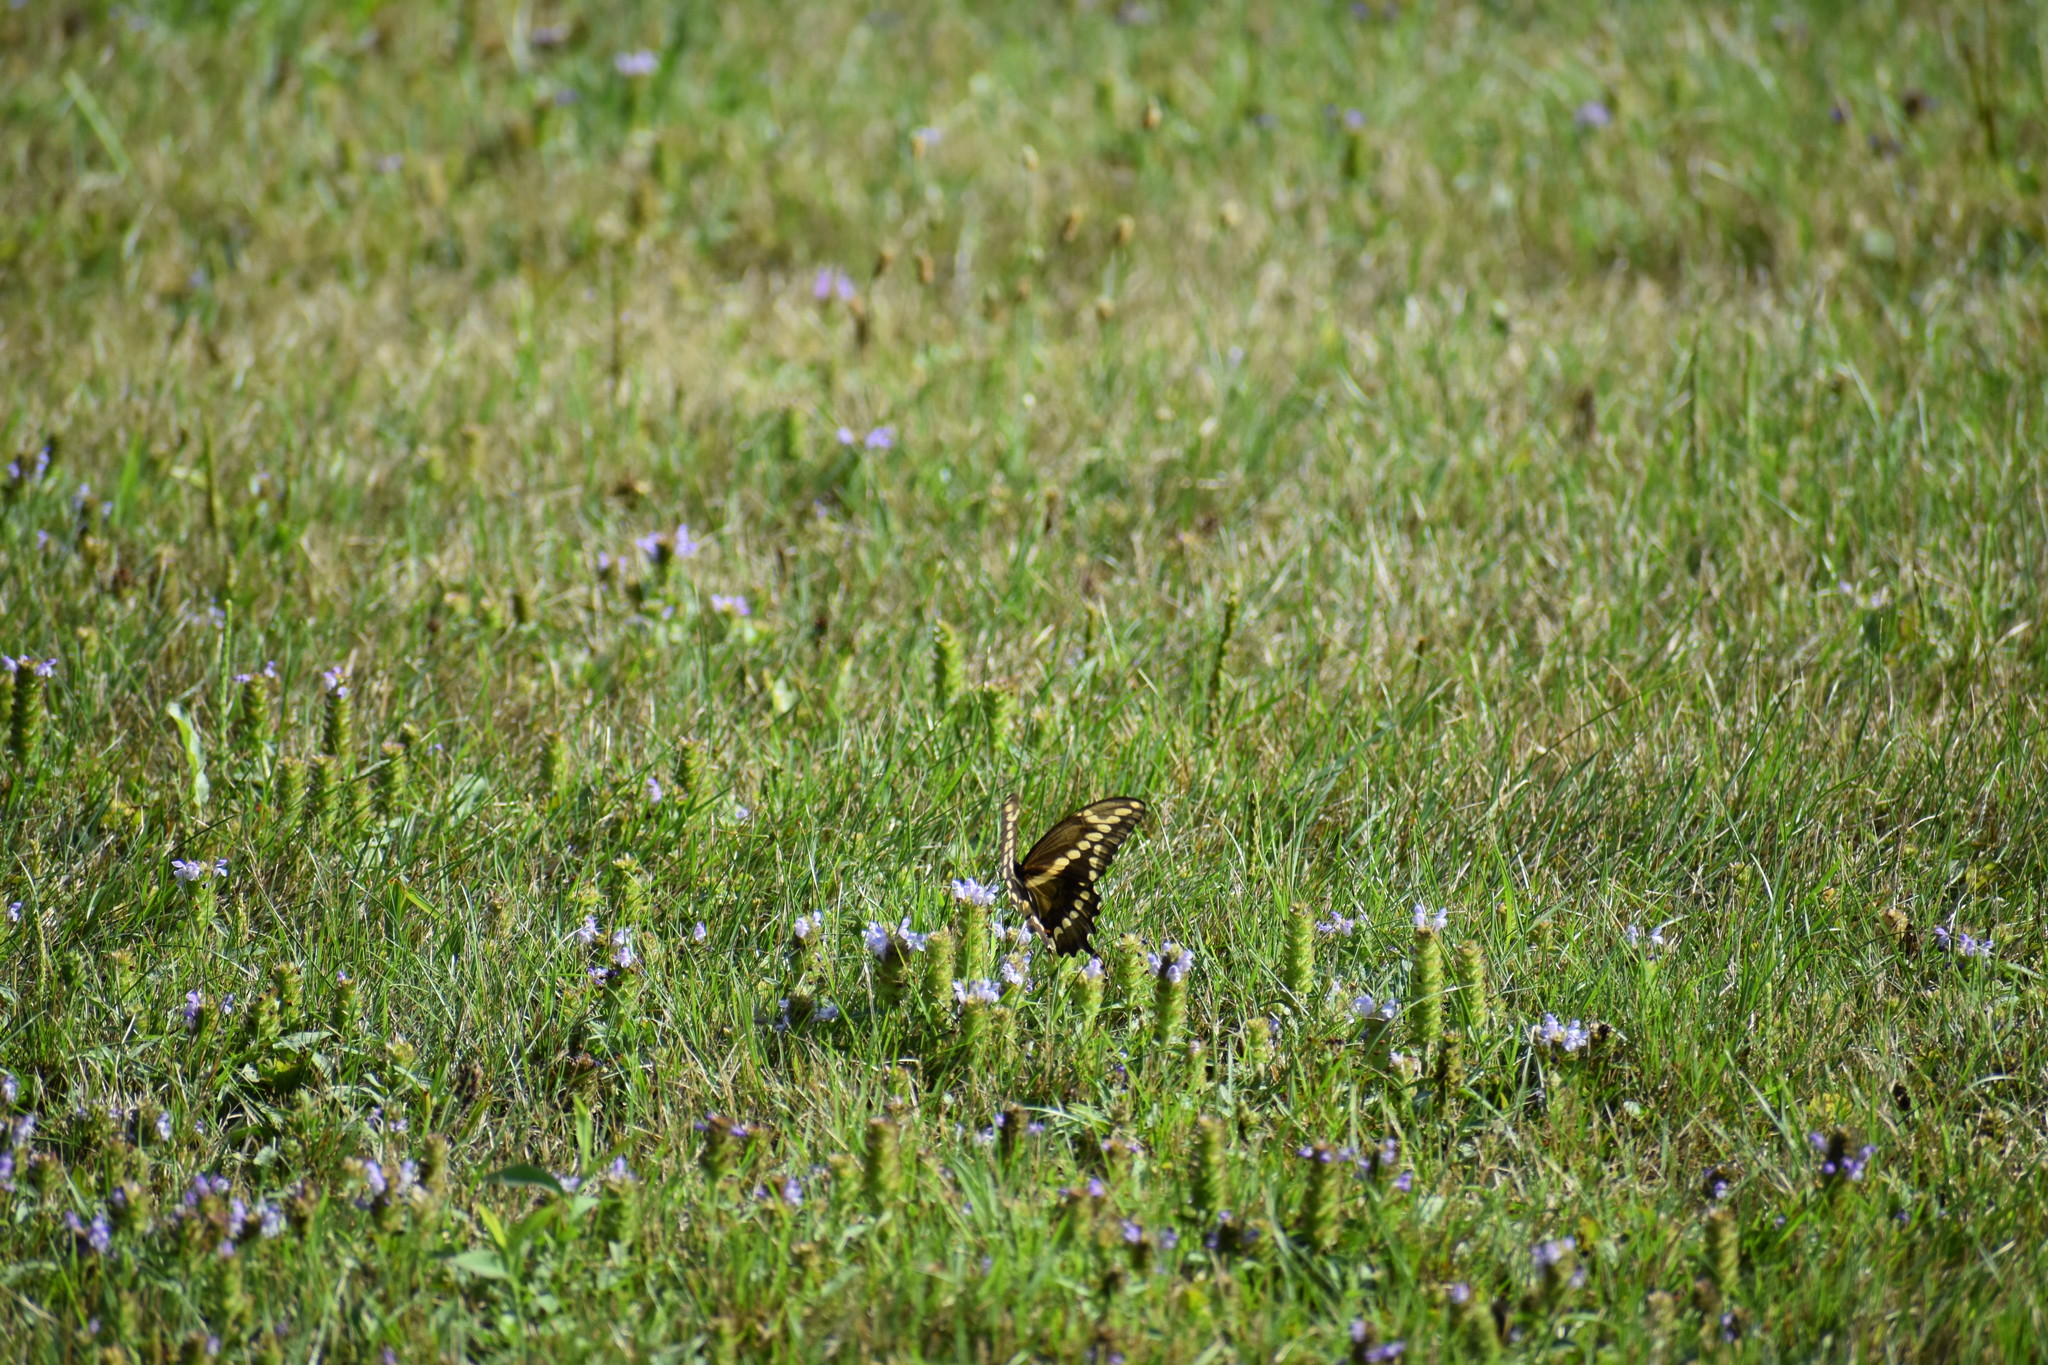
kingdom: Animalia
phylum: Arthropoda
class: Insecta
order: Lepidoptera
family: Papilionidae
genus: Papilio
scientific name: Papilio cresphontes
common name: Giant swallowtail
